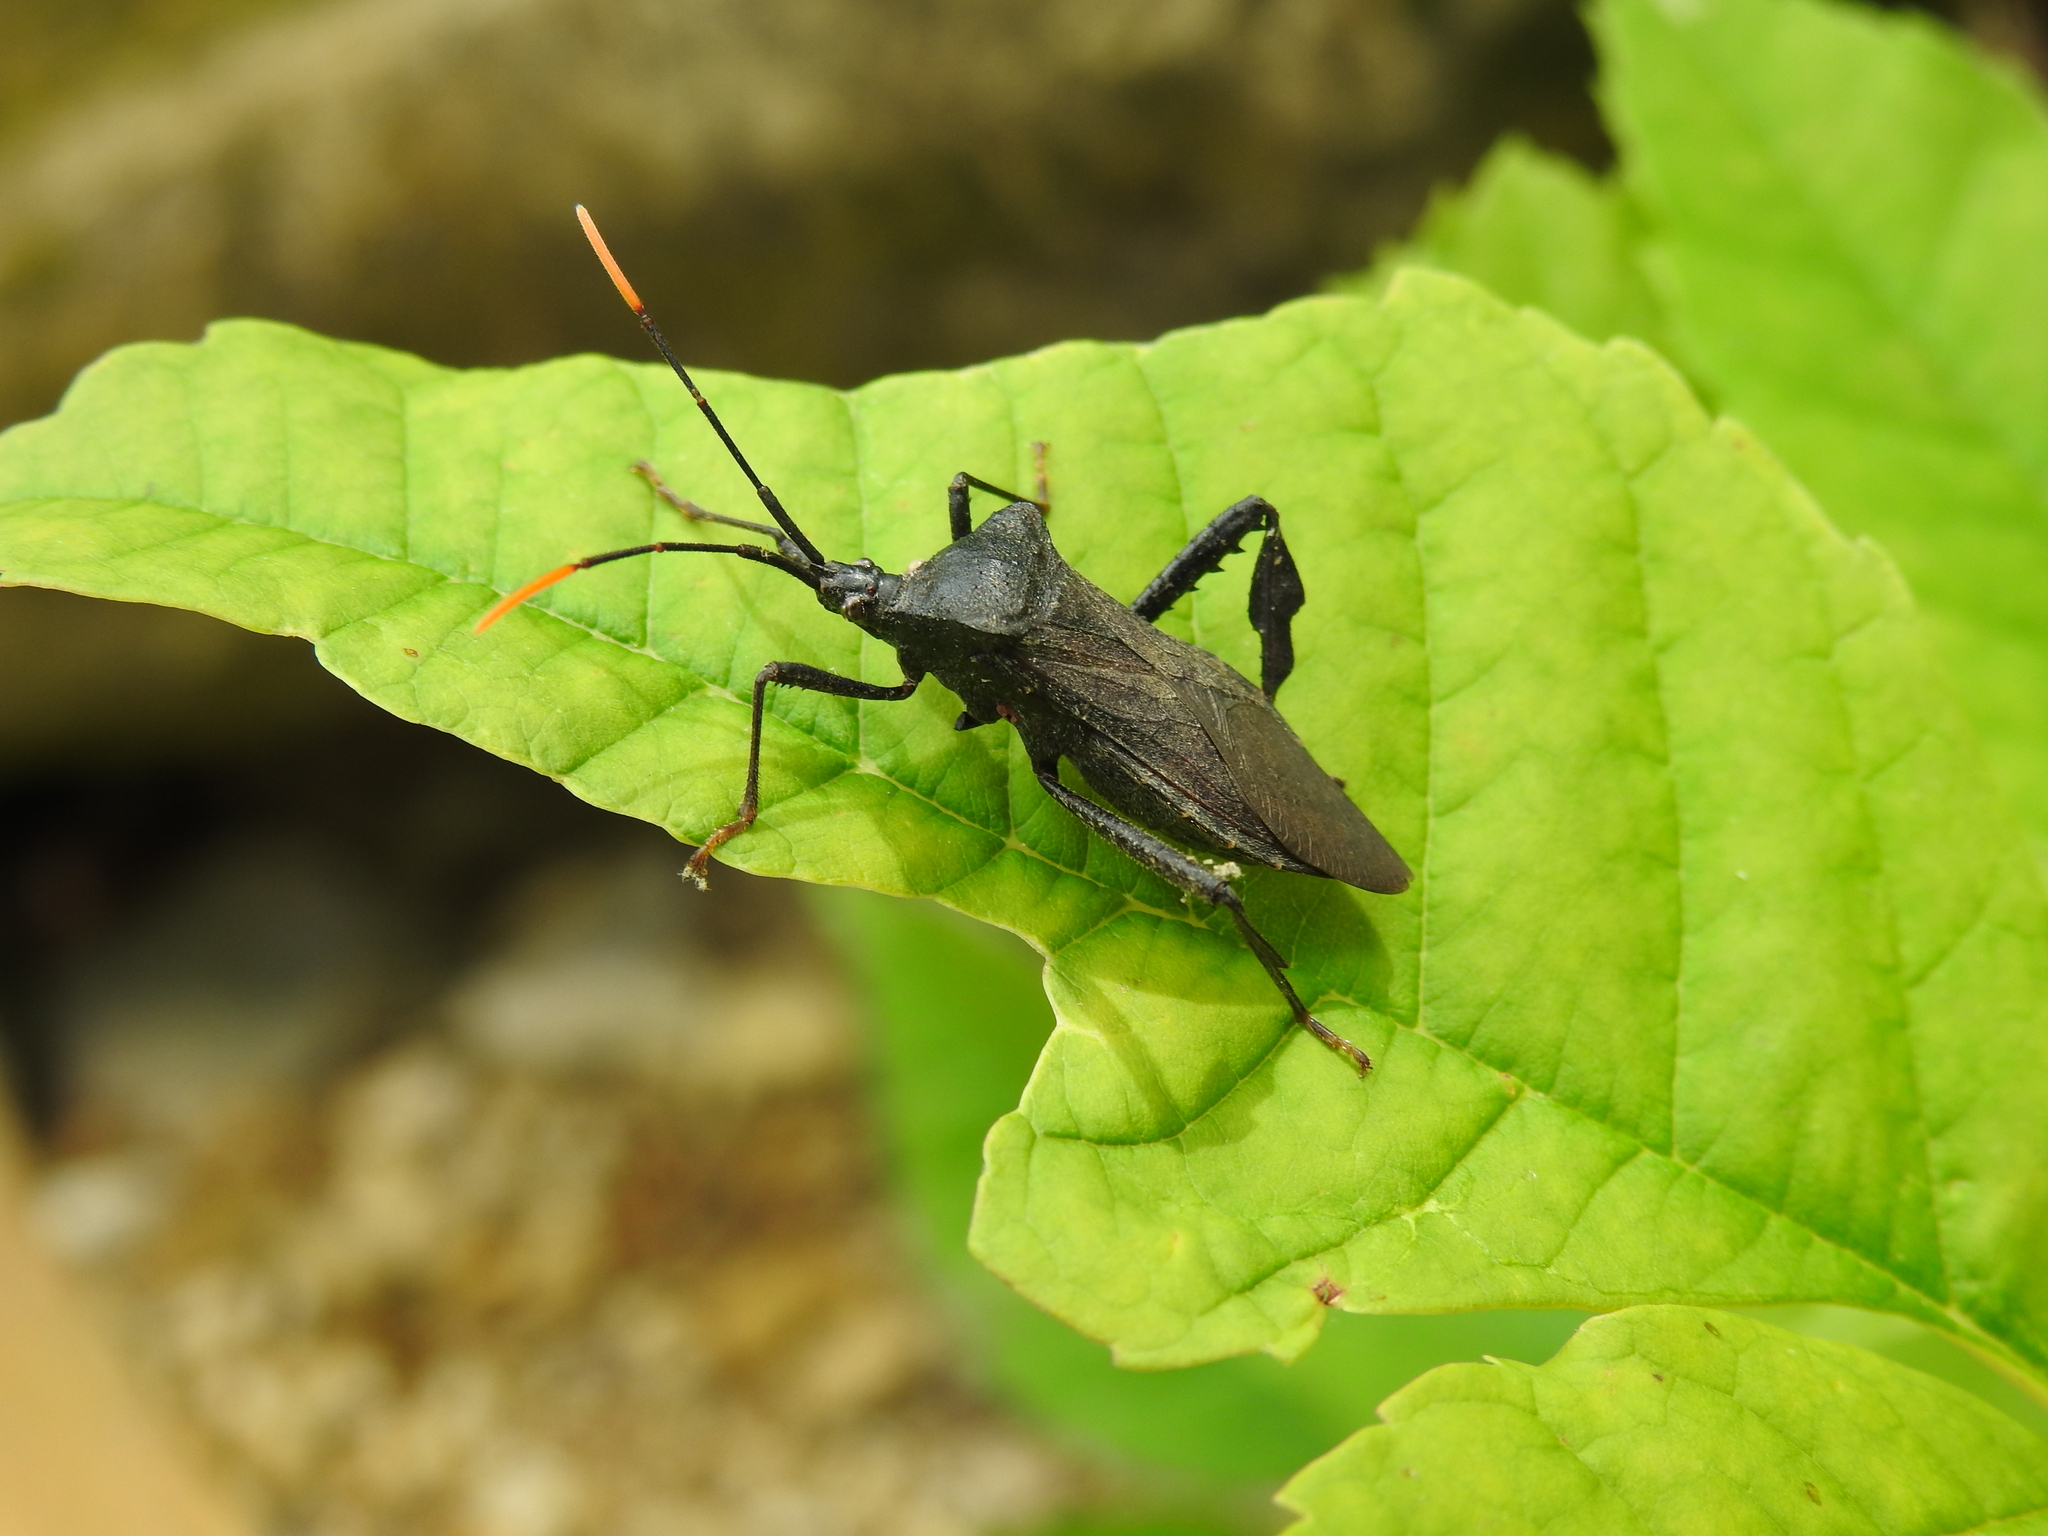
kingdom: Animalia
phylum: Arthropoda
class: Insecta
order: Hemiptera
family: Coreidae
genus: Acanthocephala
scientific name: Acanthocephala terminalis
